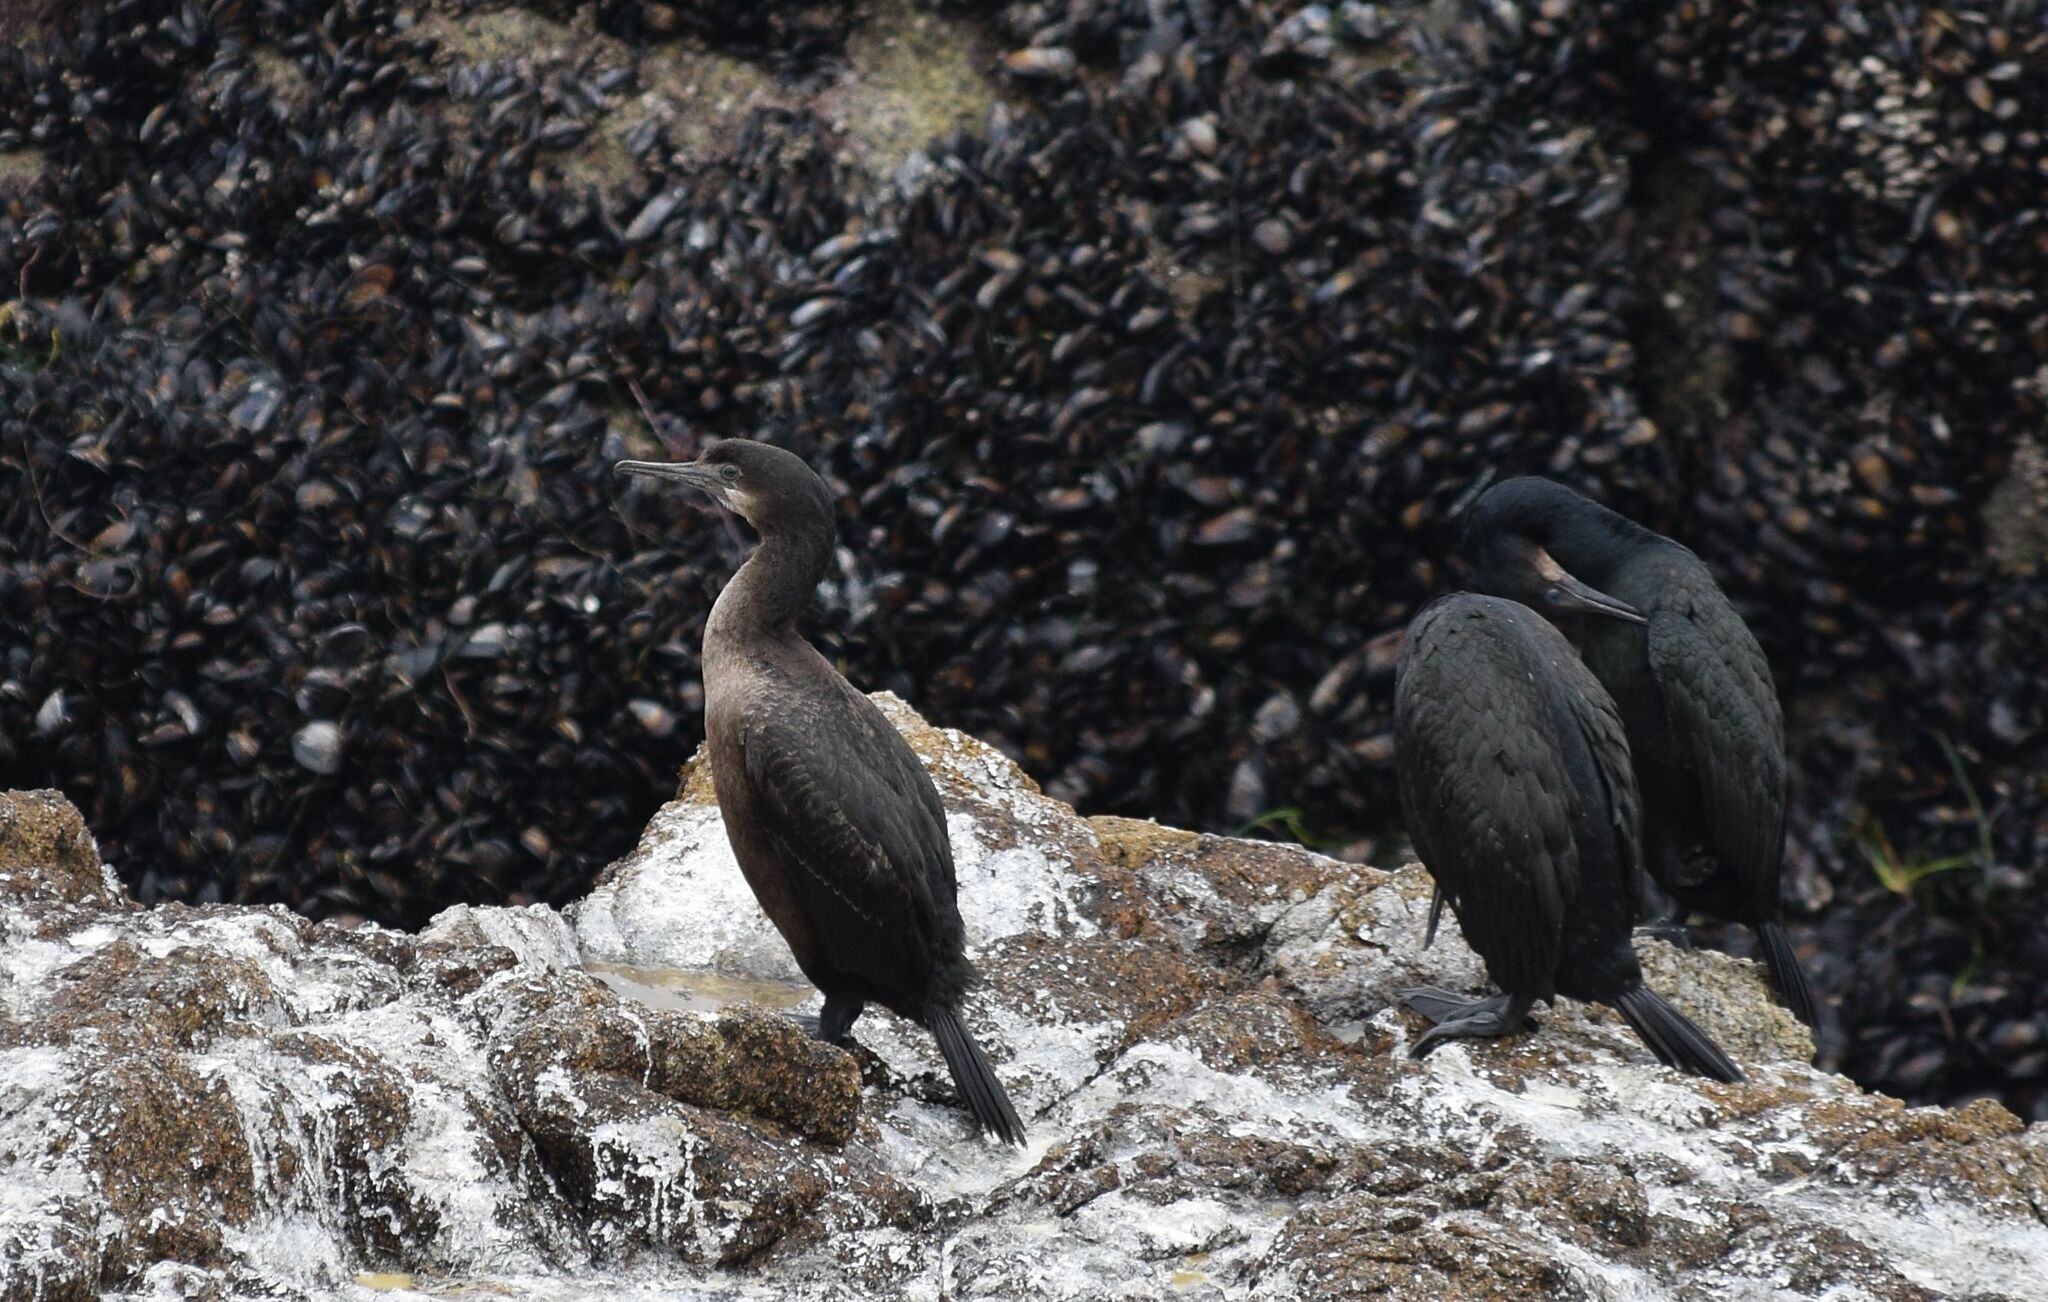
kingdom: Animalia
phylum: Chordata
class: Aves
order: Suliformes
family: Phalacrocoracidae
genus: Urile
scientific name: Urile penicillatus
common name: Brandt's cormorant
